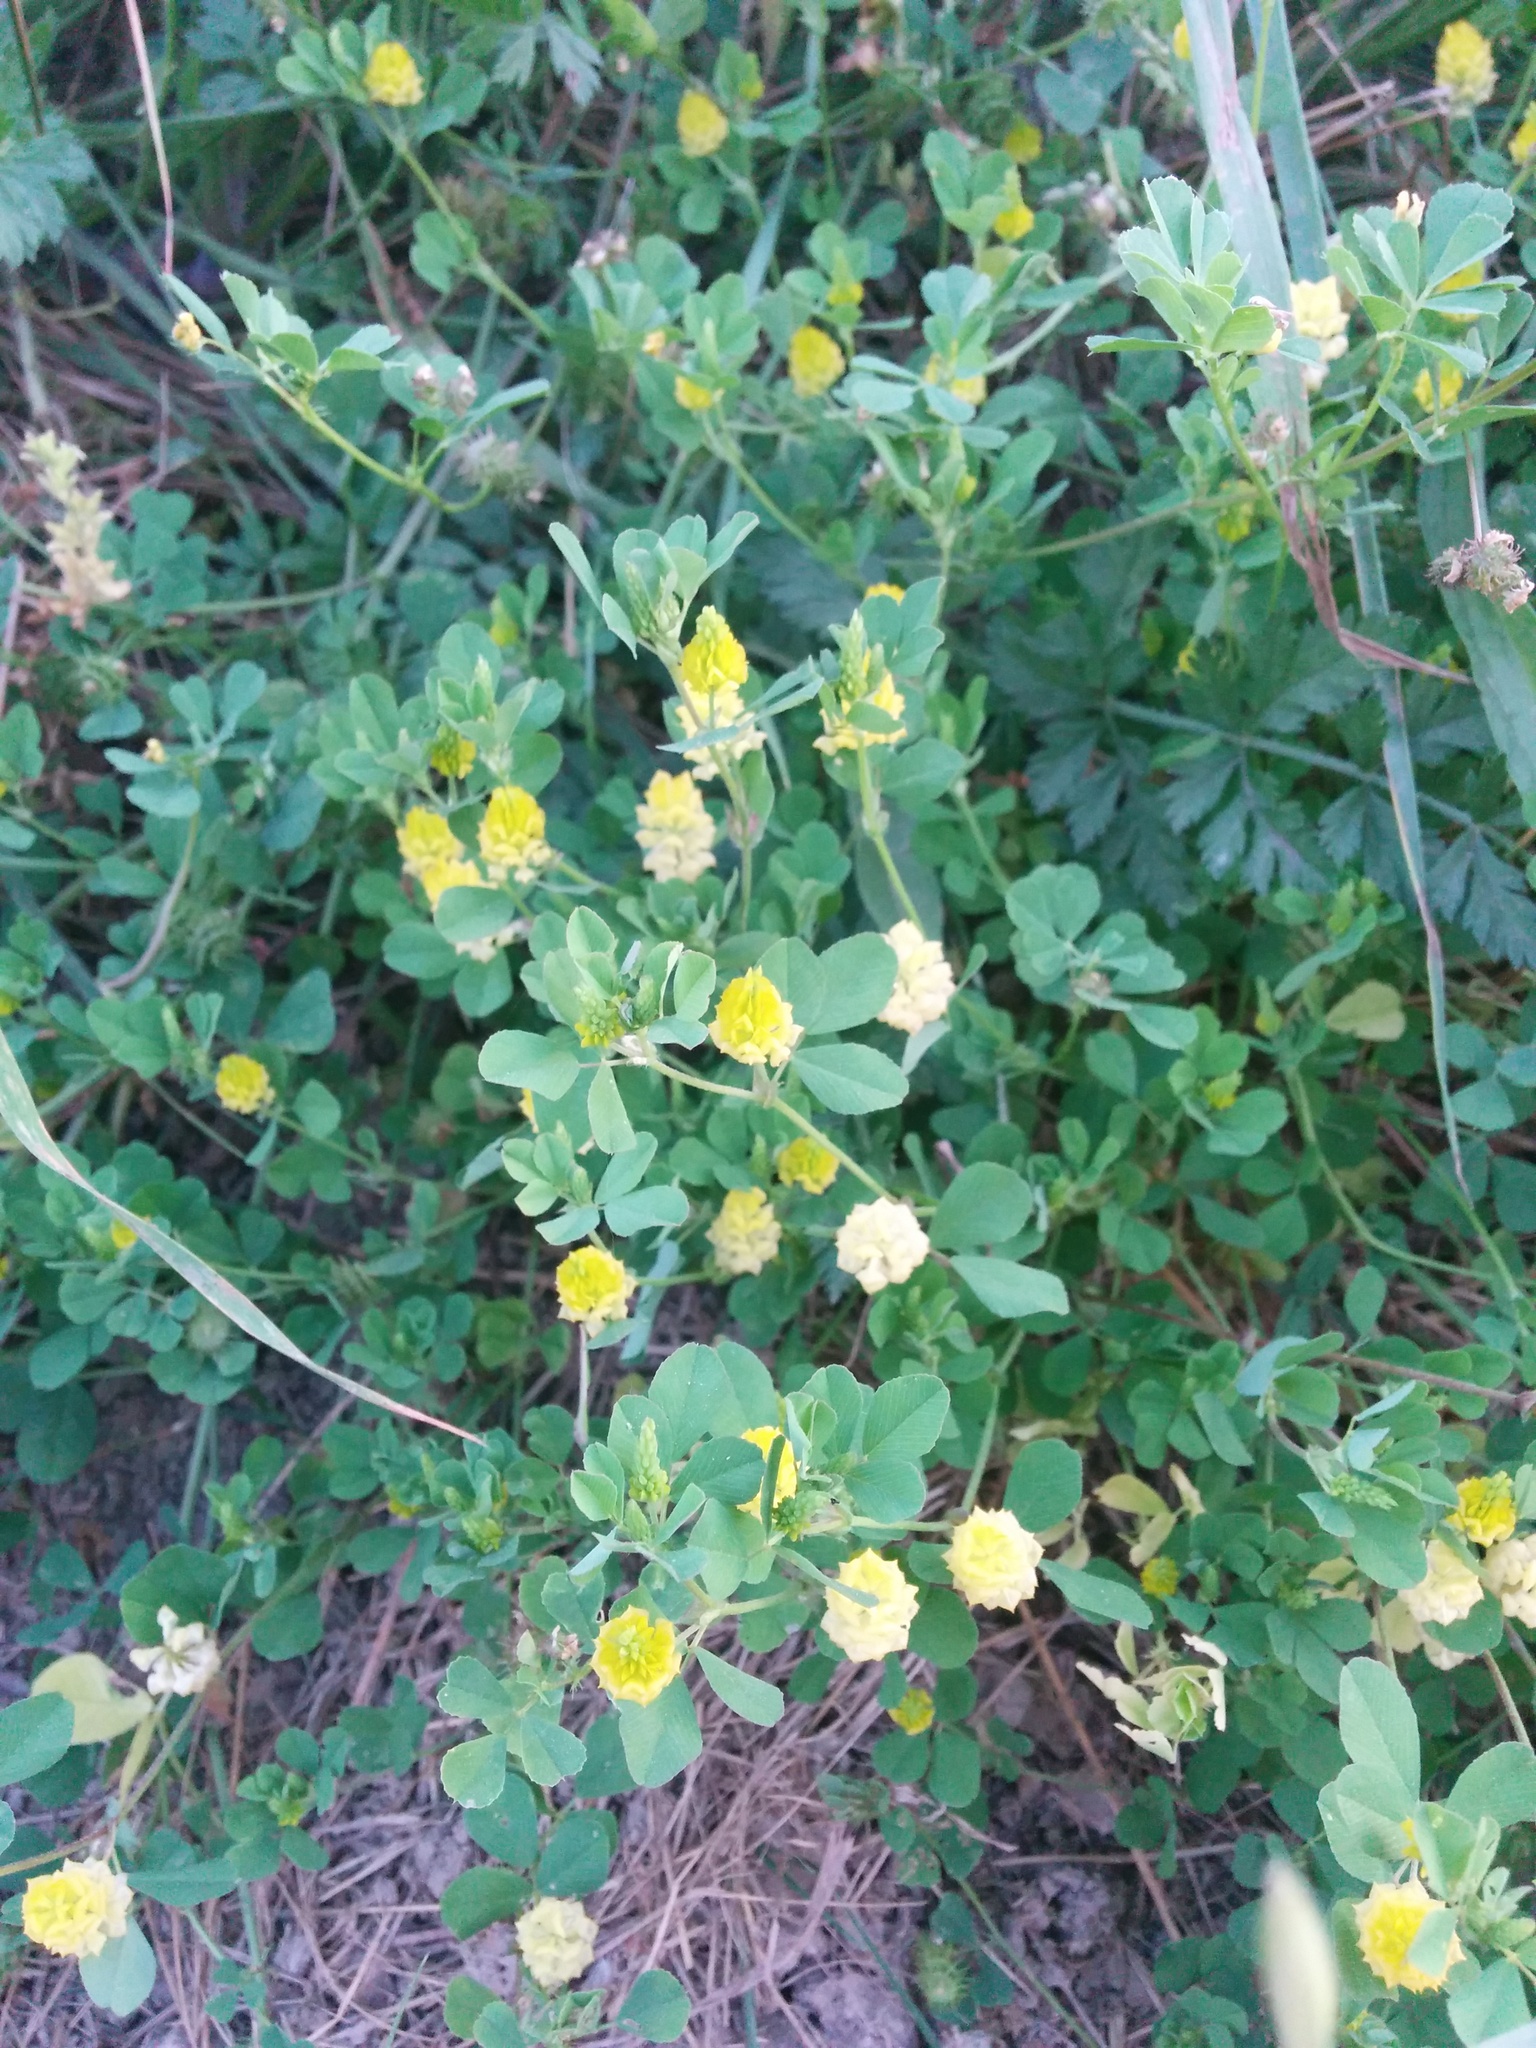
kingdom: Plantae
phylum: Tracheophyta
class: Magnoliopsida
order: Fabales
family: Fabaceae
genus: Trifolium
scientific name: Trifolium campestre
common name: Field clover
